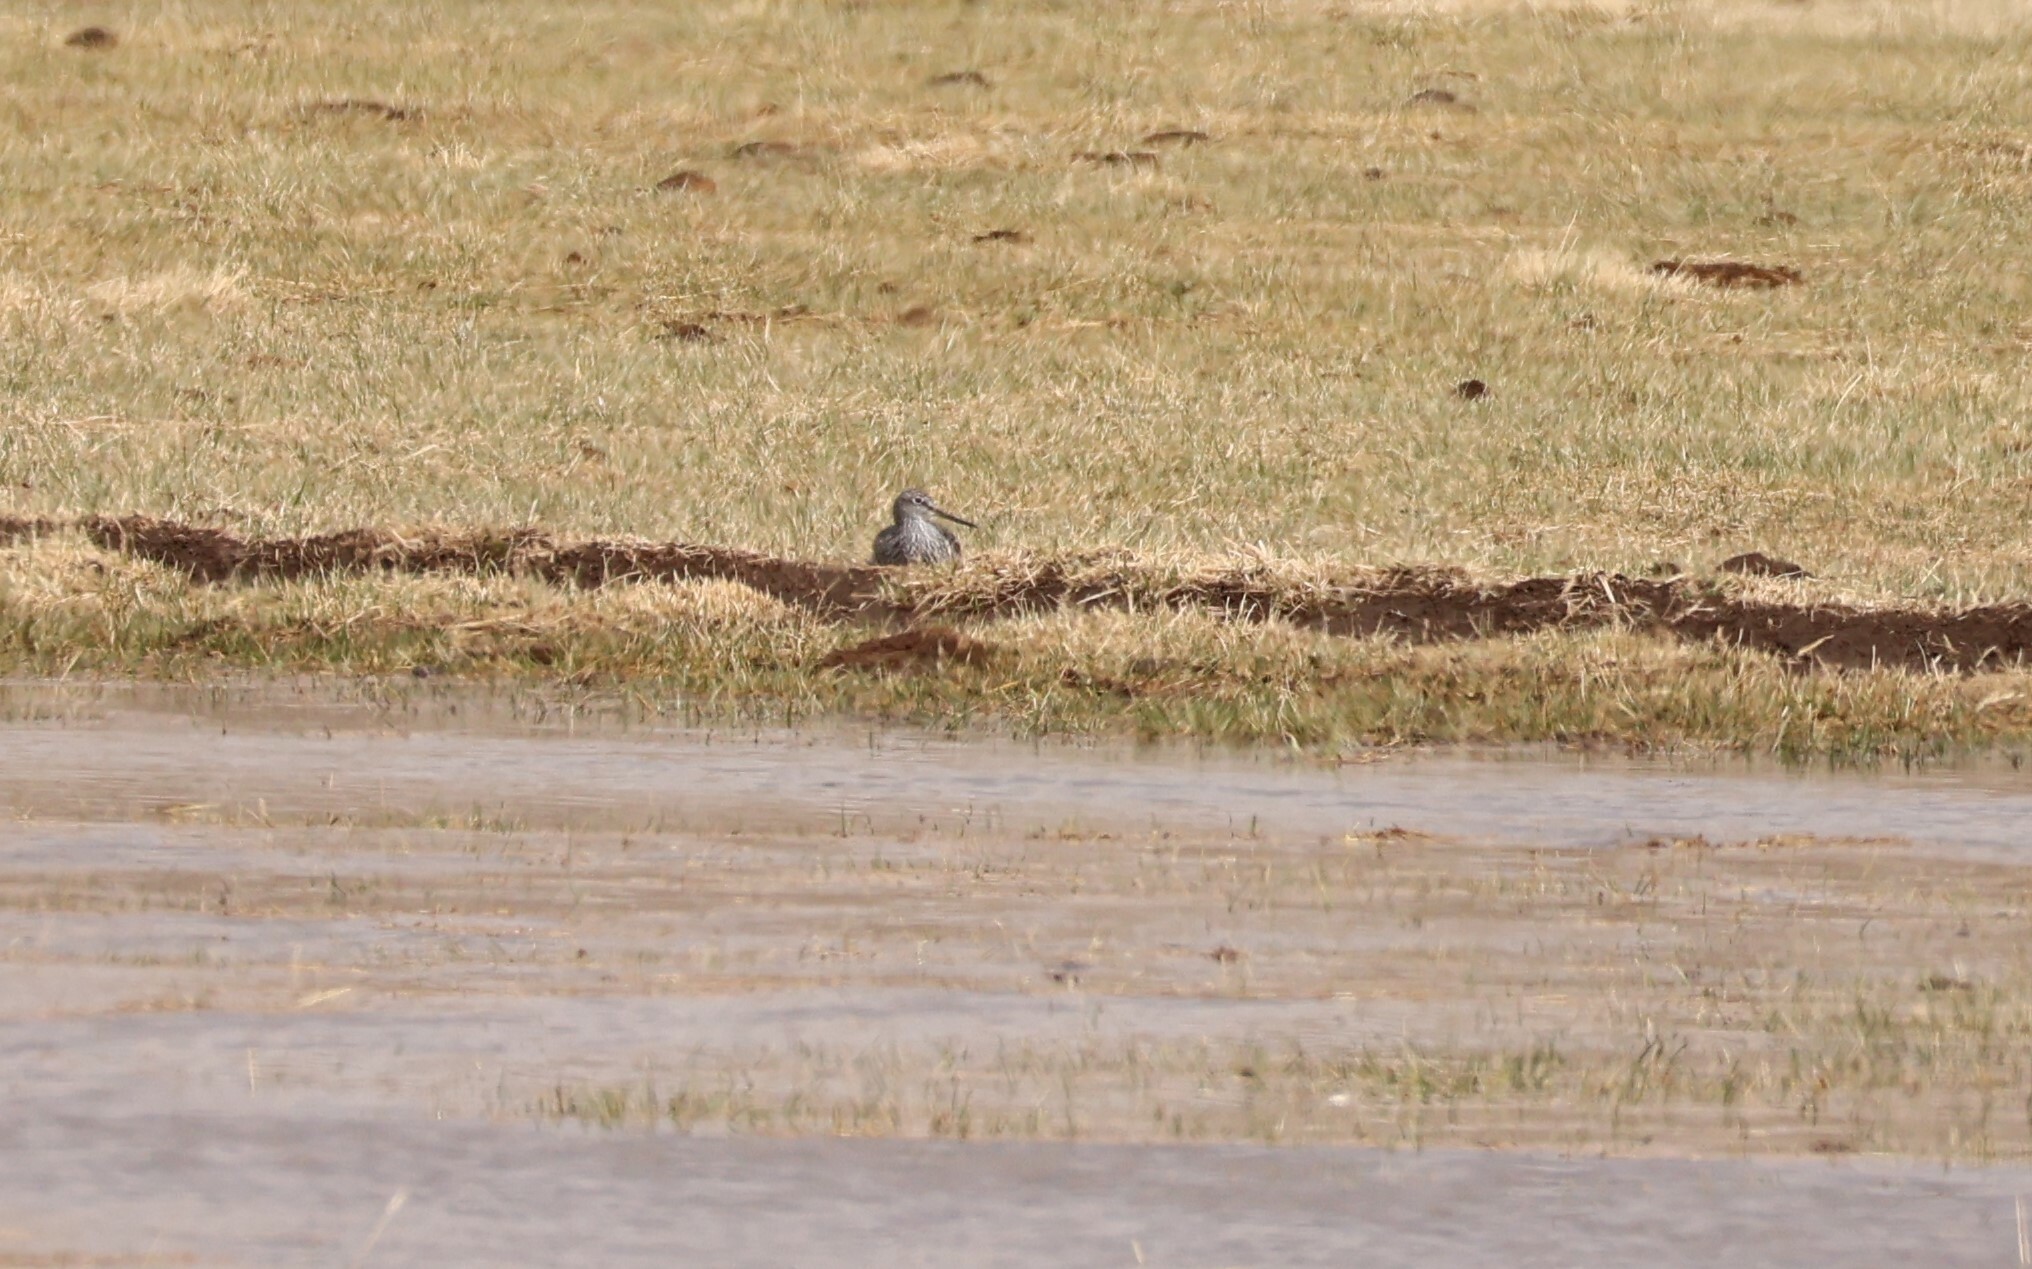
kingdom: Animalia
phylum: Chordata
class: Aves
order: Charadriiformes
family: Scolopacidae
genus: Gallinago
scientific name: Gallinago delicata
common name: Wilson's snipe
